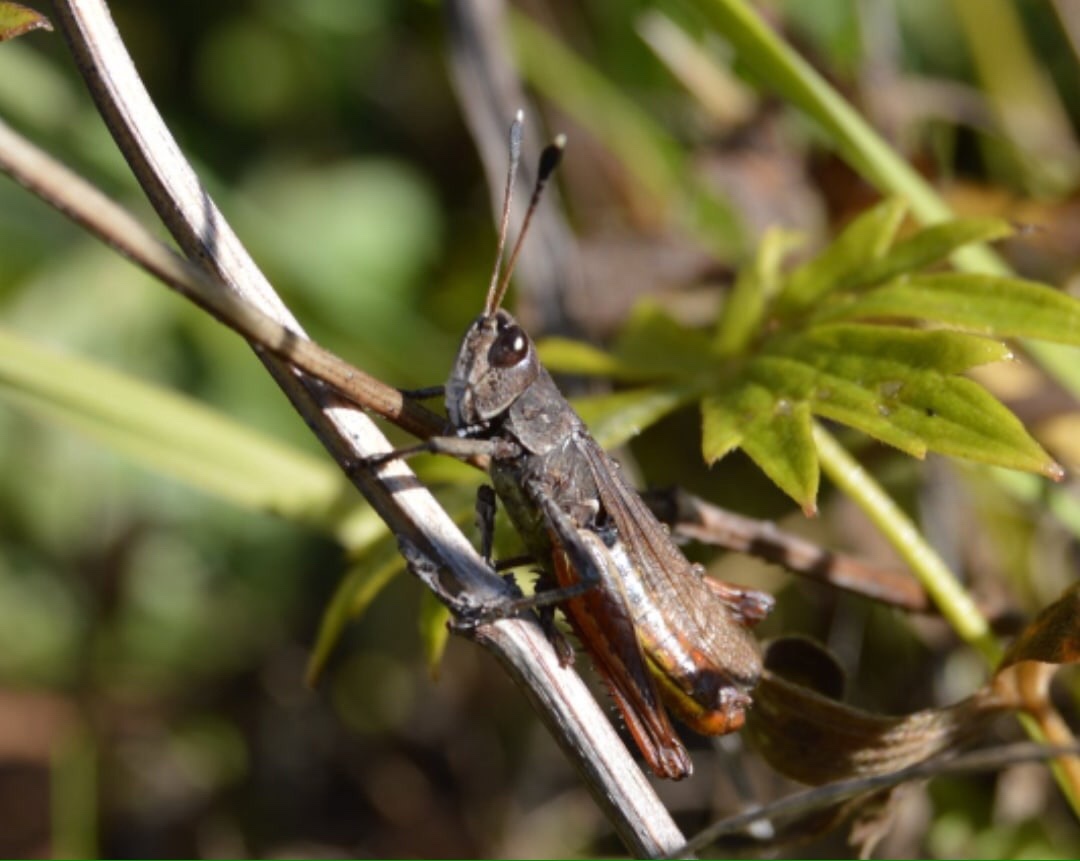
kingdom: Animalia
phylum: Arthropoda
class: Insecta
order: Orthoptera
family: Acrididae
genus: Gomphocerippus
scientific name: Gomphocerippus rufus
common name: Rufous grasshopper
